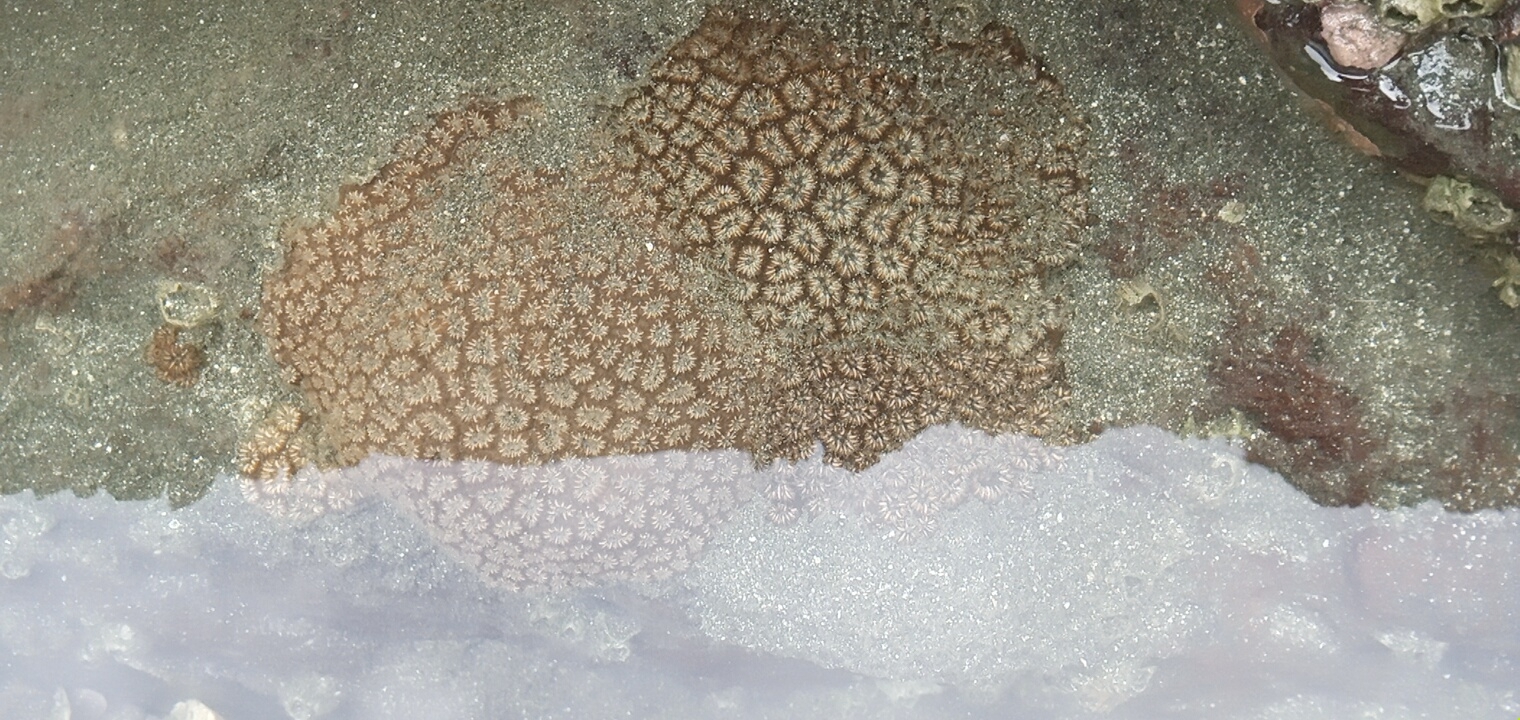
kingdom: Animalia
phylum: Cnidaria
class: Anthozoa
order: Scleractinia
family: Oulastreidae
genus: Oulastrea
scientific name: Oulastrea crispata
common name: Zebra coral
